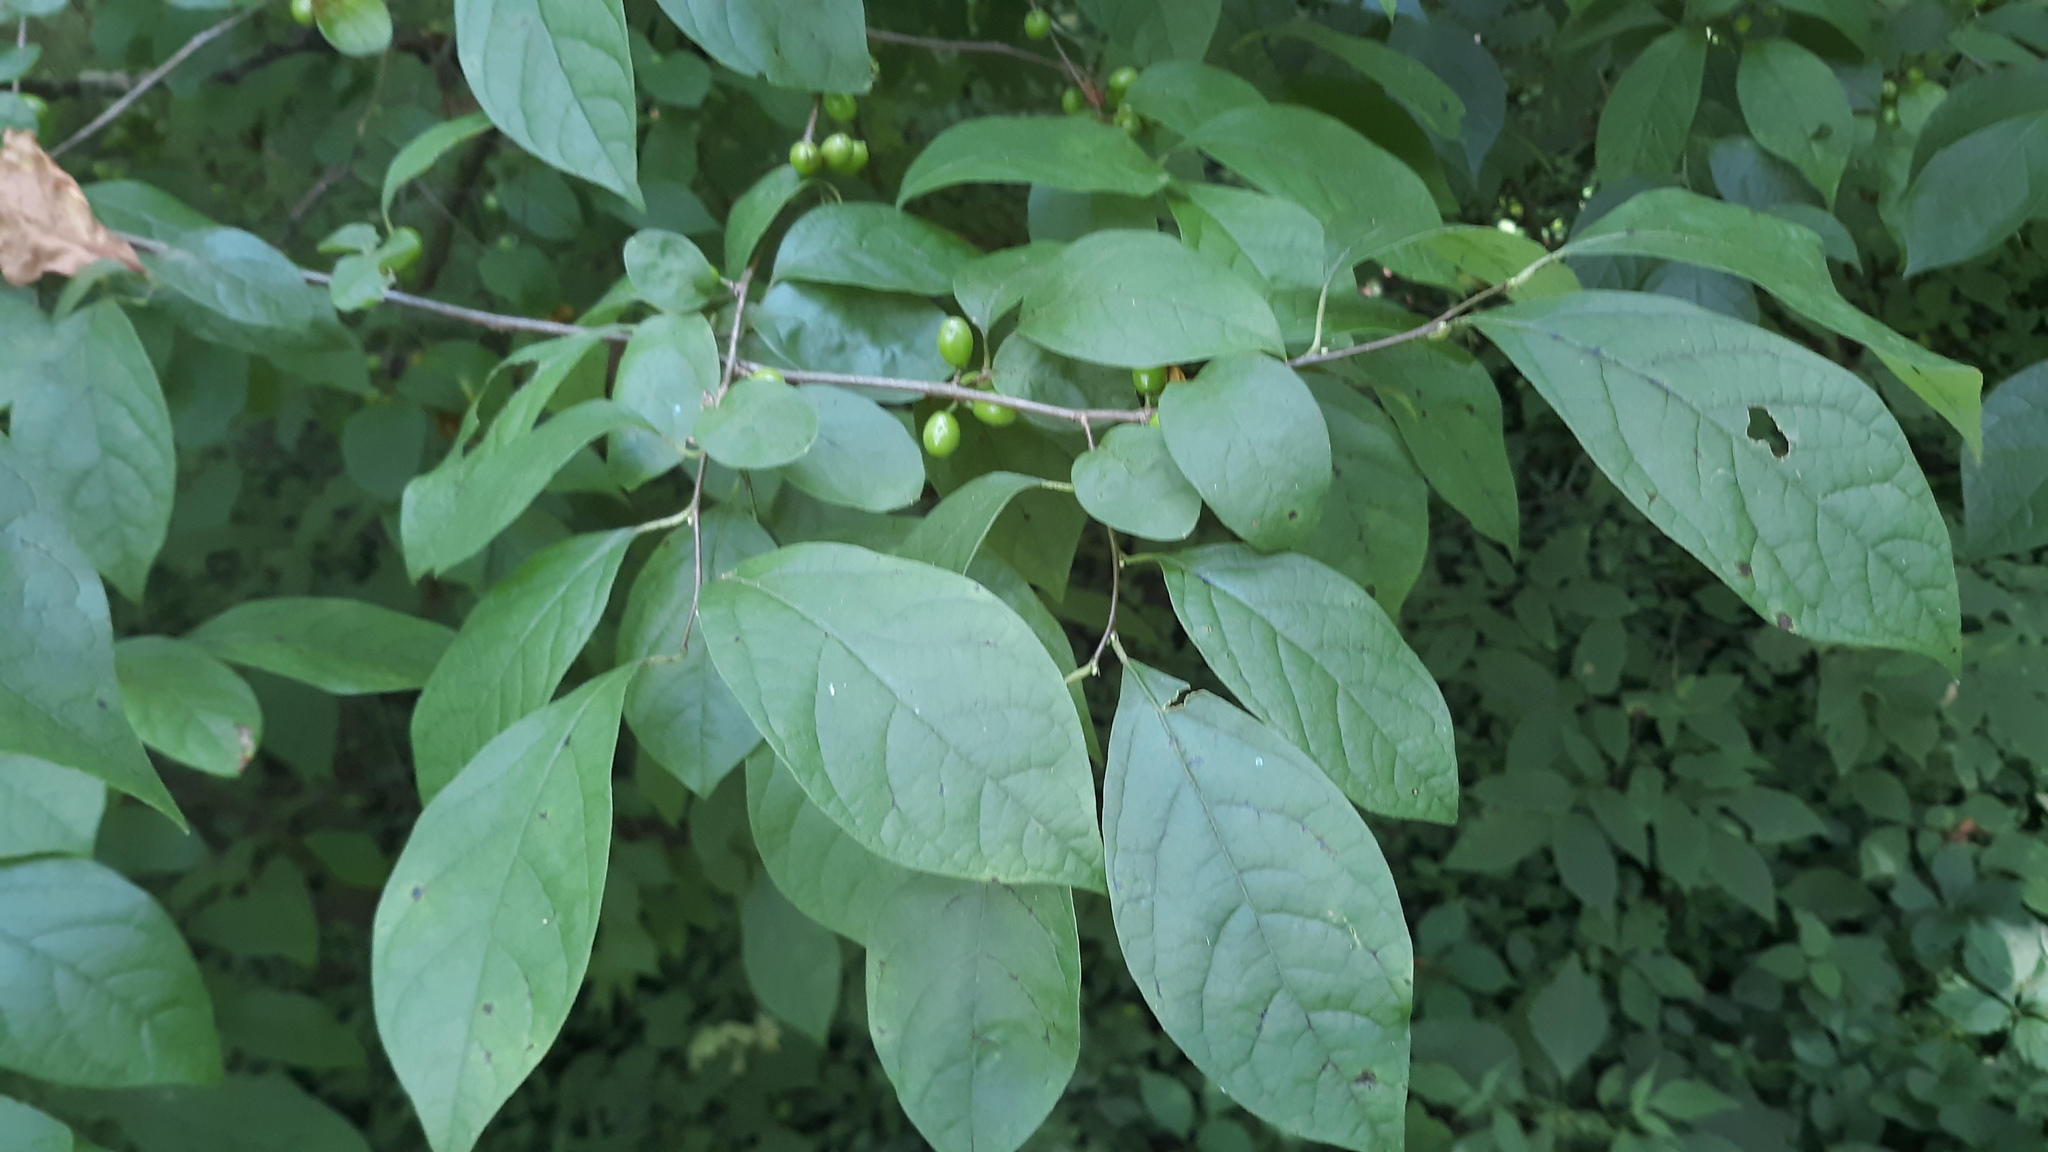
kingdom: Plantae
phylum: Tracheophyta
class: Magnoliopsida
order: Laurales
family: Lauraceae
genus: Lindera
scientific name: Lindera benzoin
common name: Spicebush
